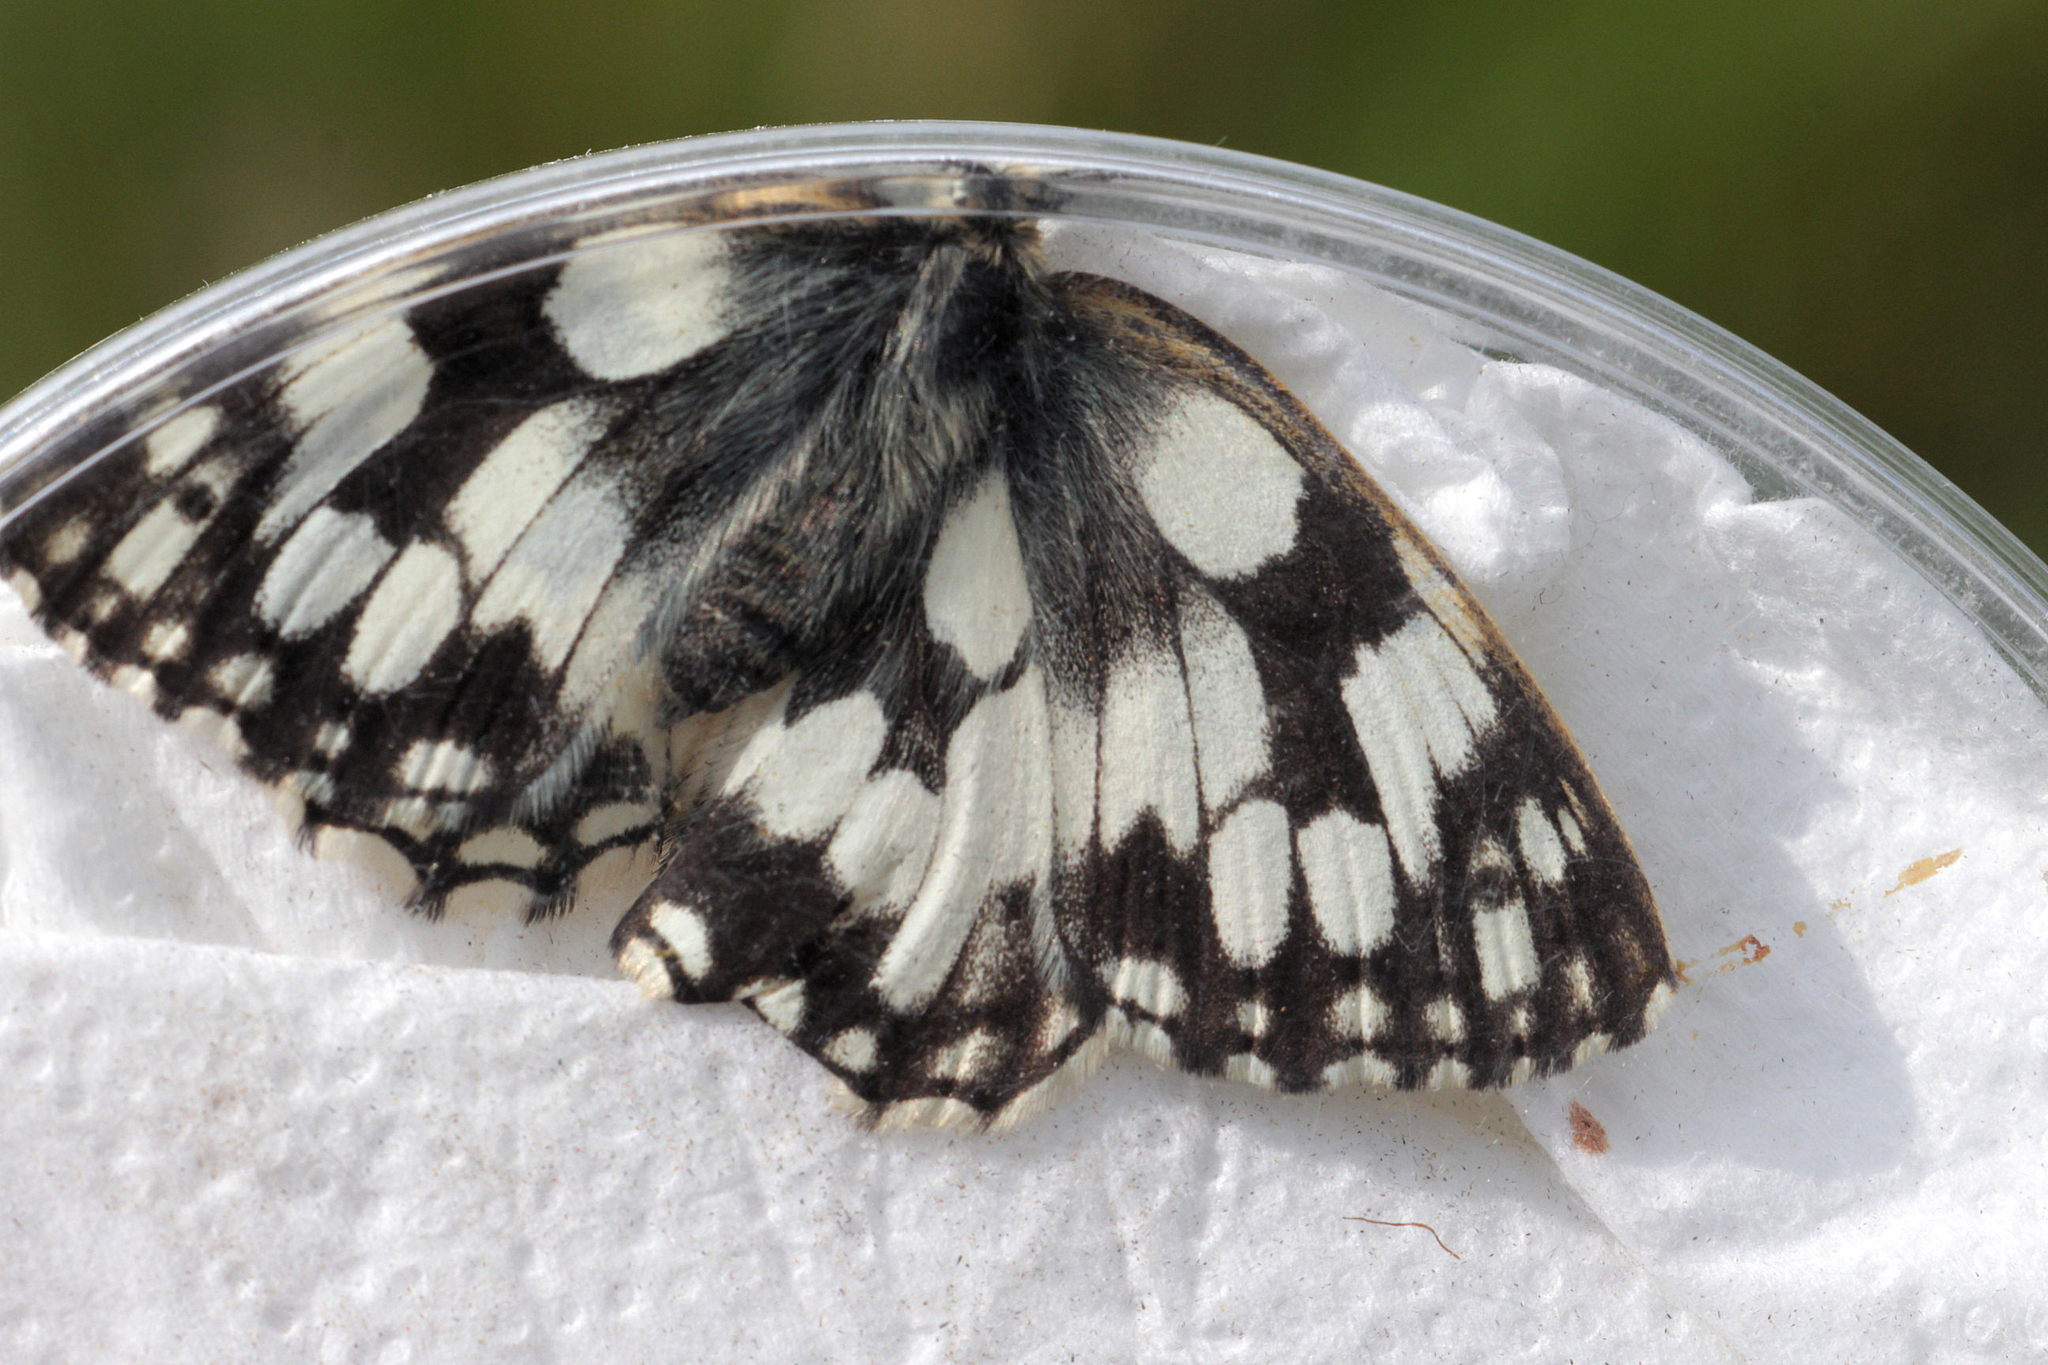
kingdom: Animalia
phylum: Arthropoda
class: Insecta
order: Lepidoptera
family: Nymphalidae
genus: Melanargia
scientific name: Melanargia galathea
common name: Marbled white
